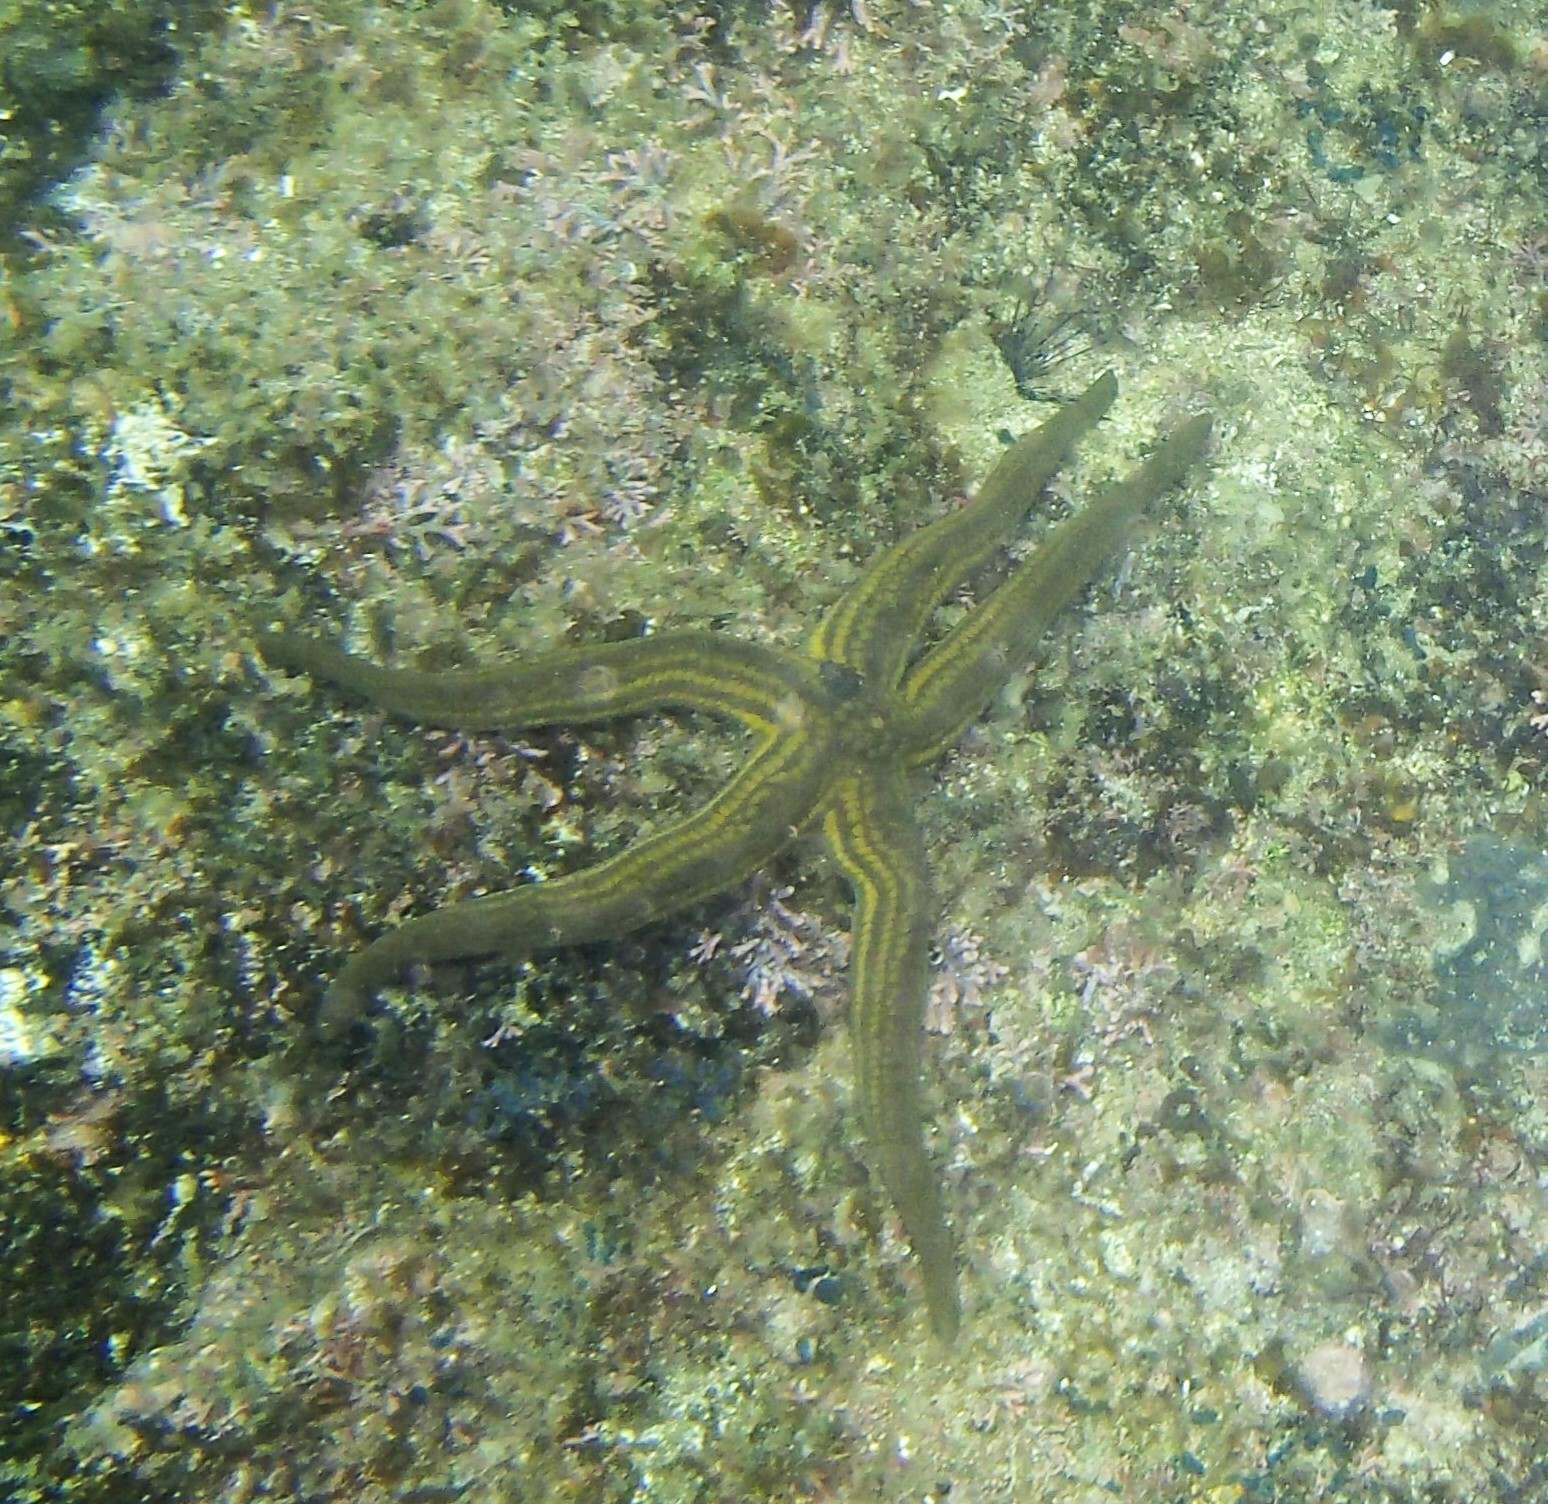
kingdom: Animalia
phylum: Echinodermata
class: Asteroidea
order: Valvatida
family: Ophidiasteridae
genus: Pharia
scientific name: Pharia pyramidata
